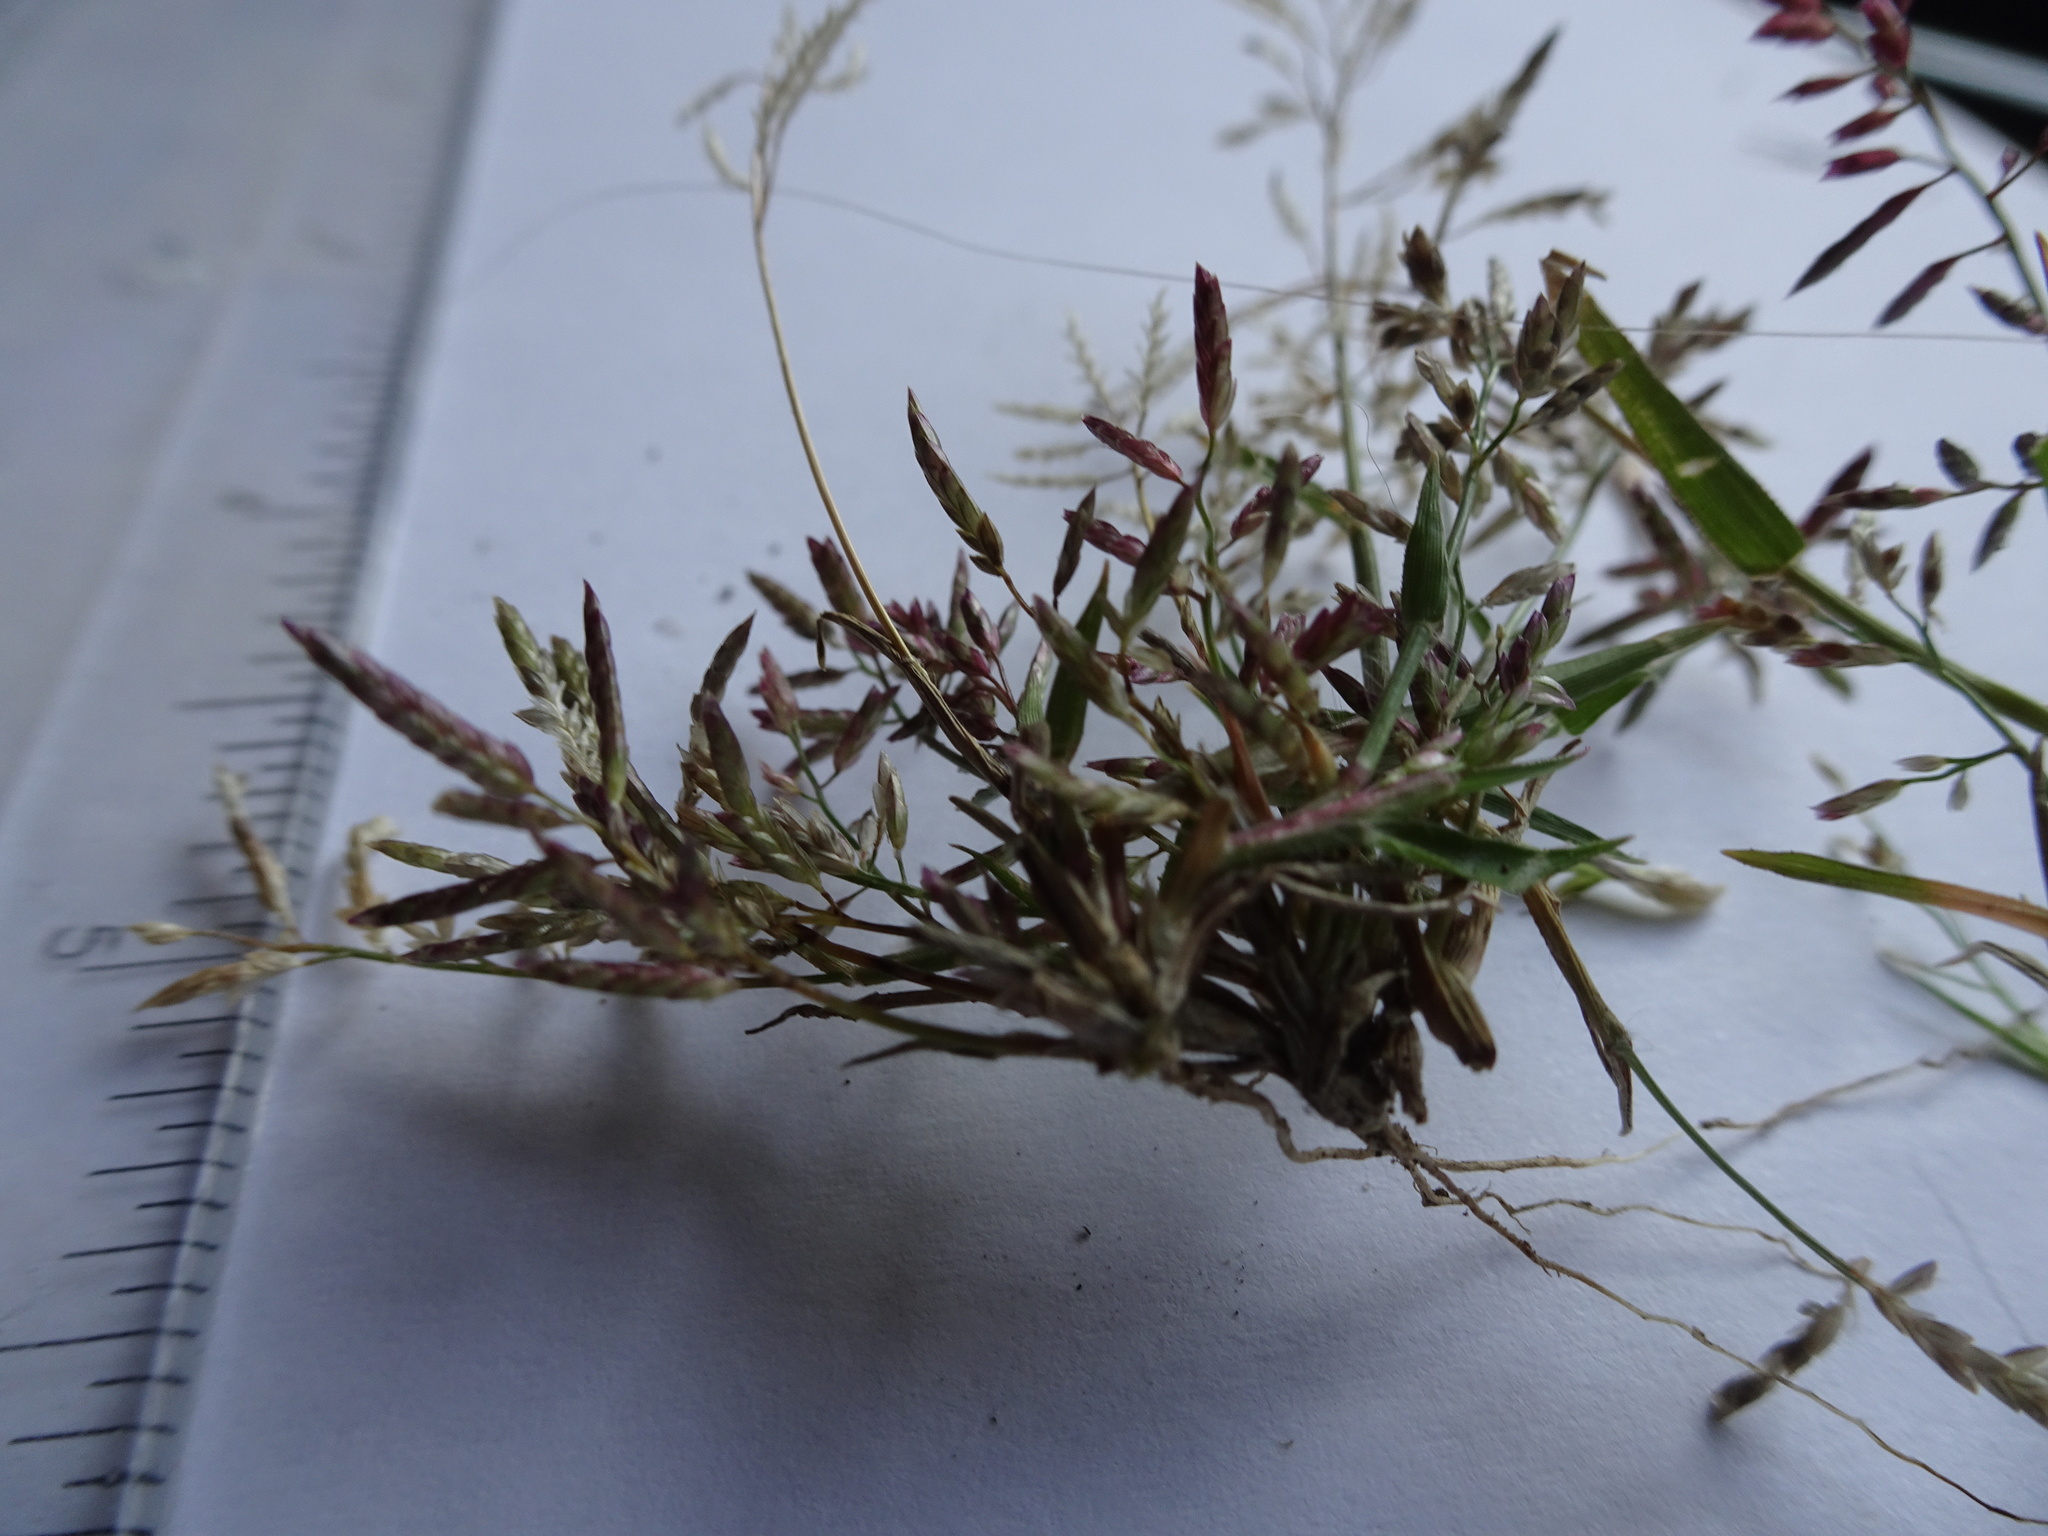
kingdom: Plantae
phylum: Tracheophyta
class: Liliopsida
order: Poales
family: Poaceae
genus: Eragrostis
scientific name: Eragrostis minor
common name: Small love-grass
